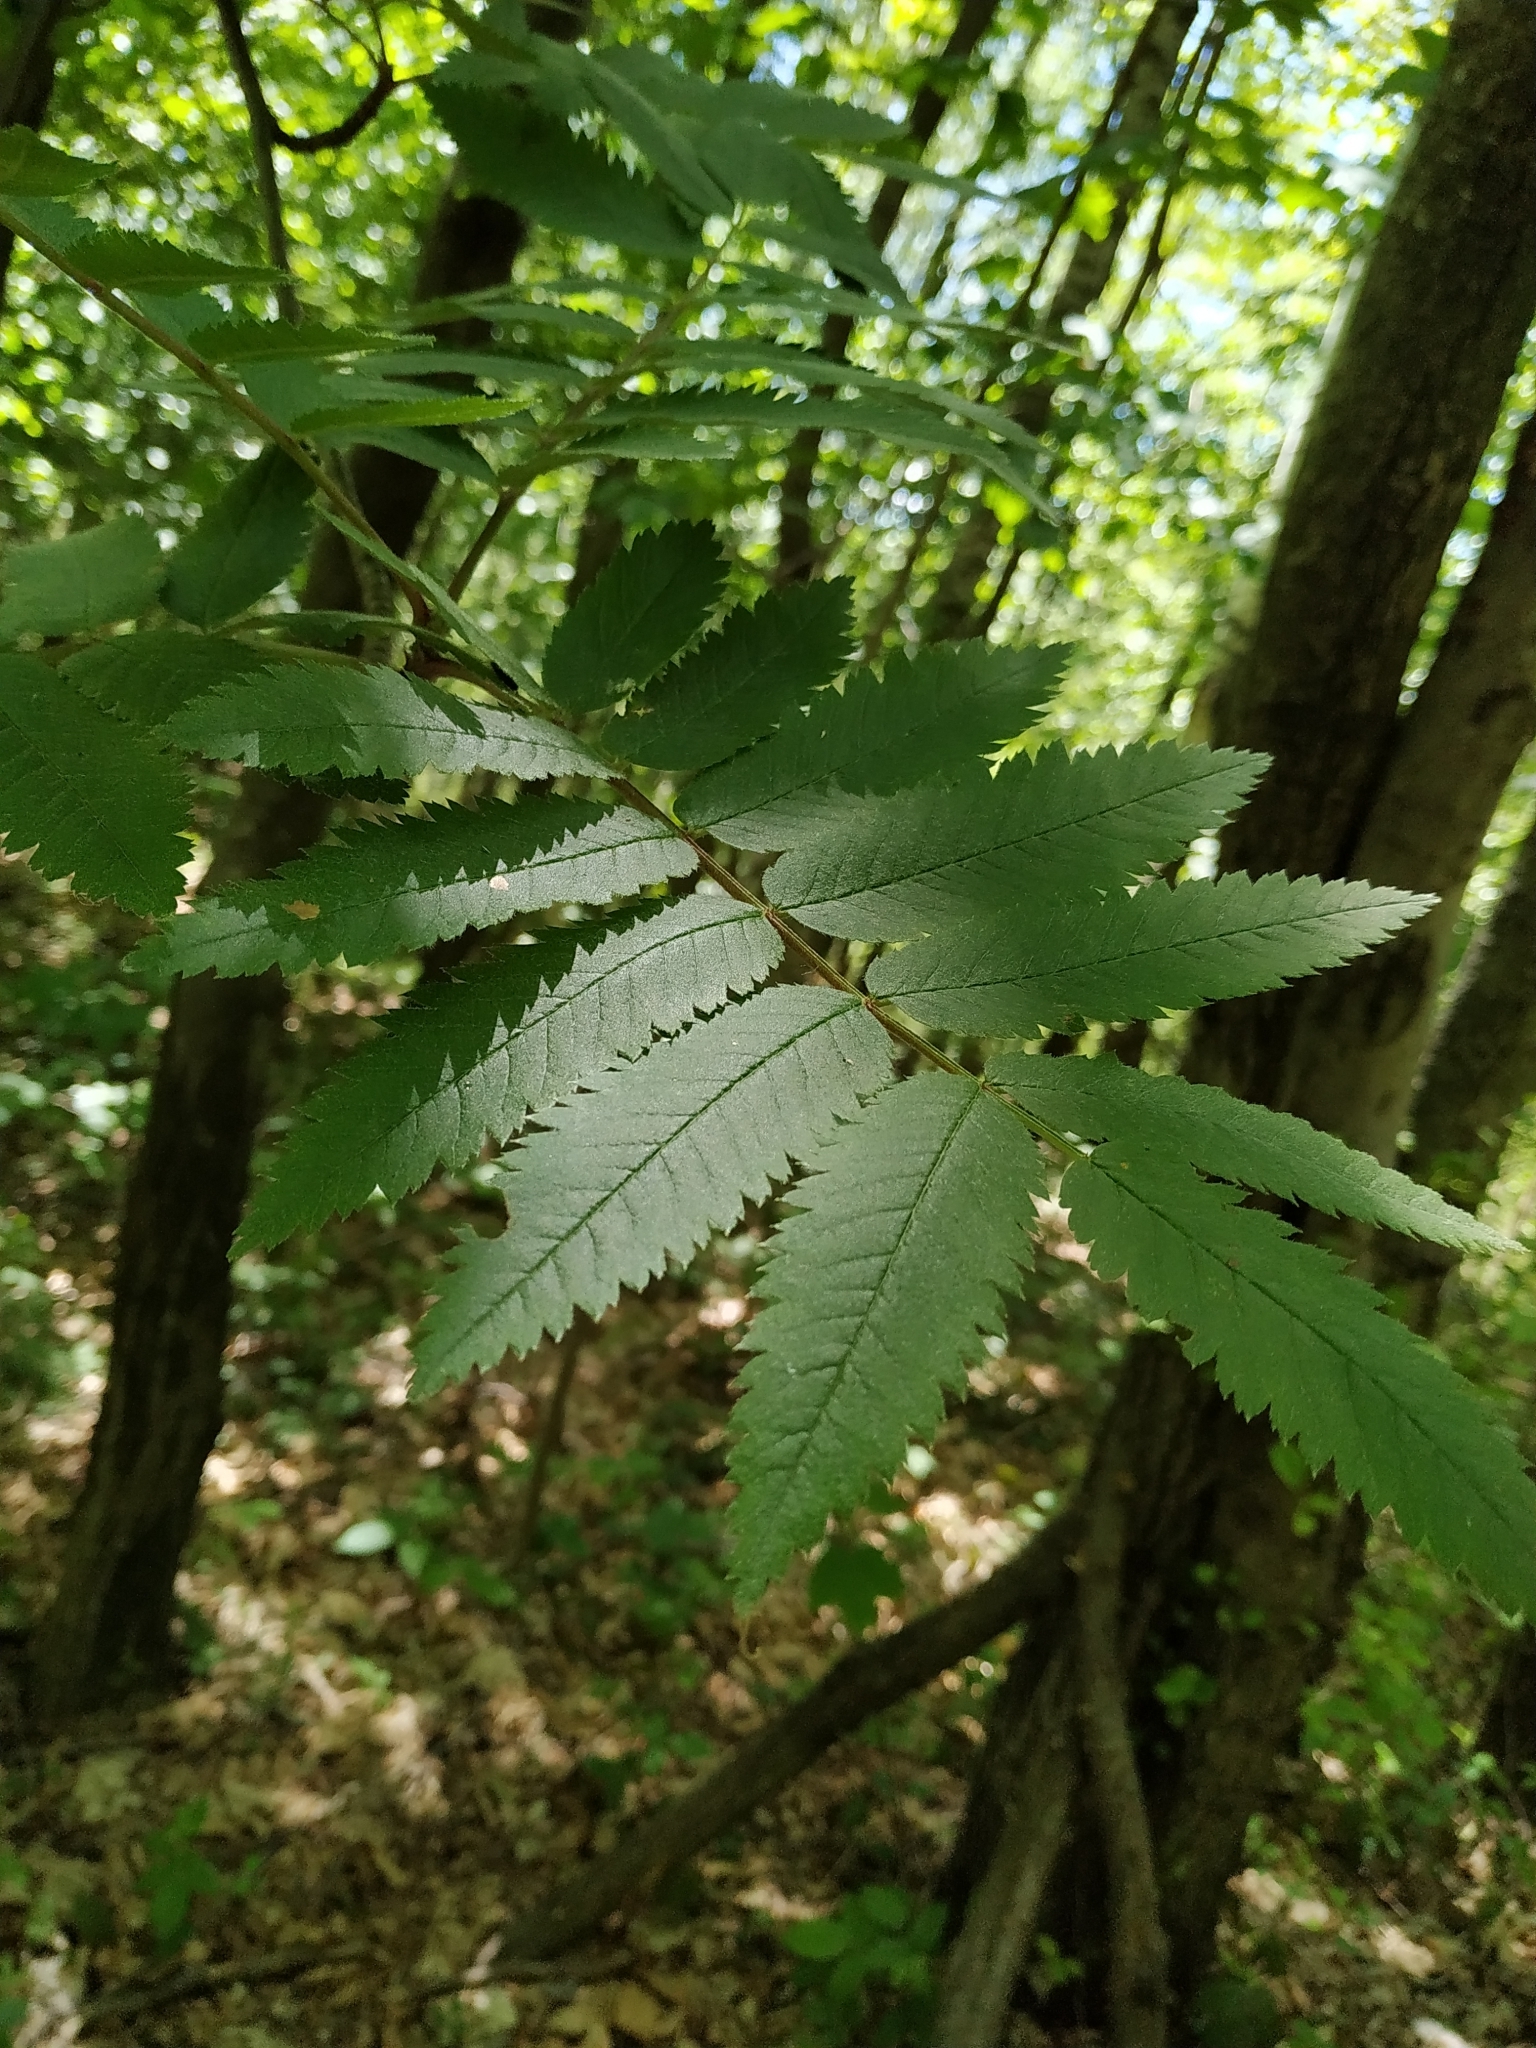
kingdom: Plantae
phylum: Tracheophyta
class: Magnoliopsida
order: Rosales
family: Rosaceae
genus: Sorbus
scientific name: Sorbus aucuparia
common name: Rowan
